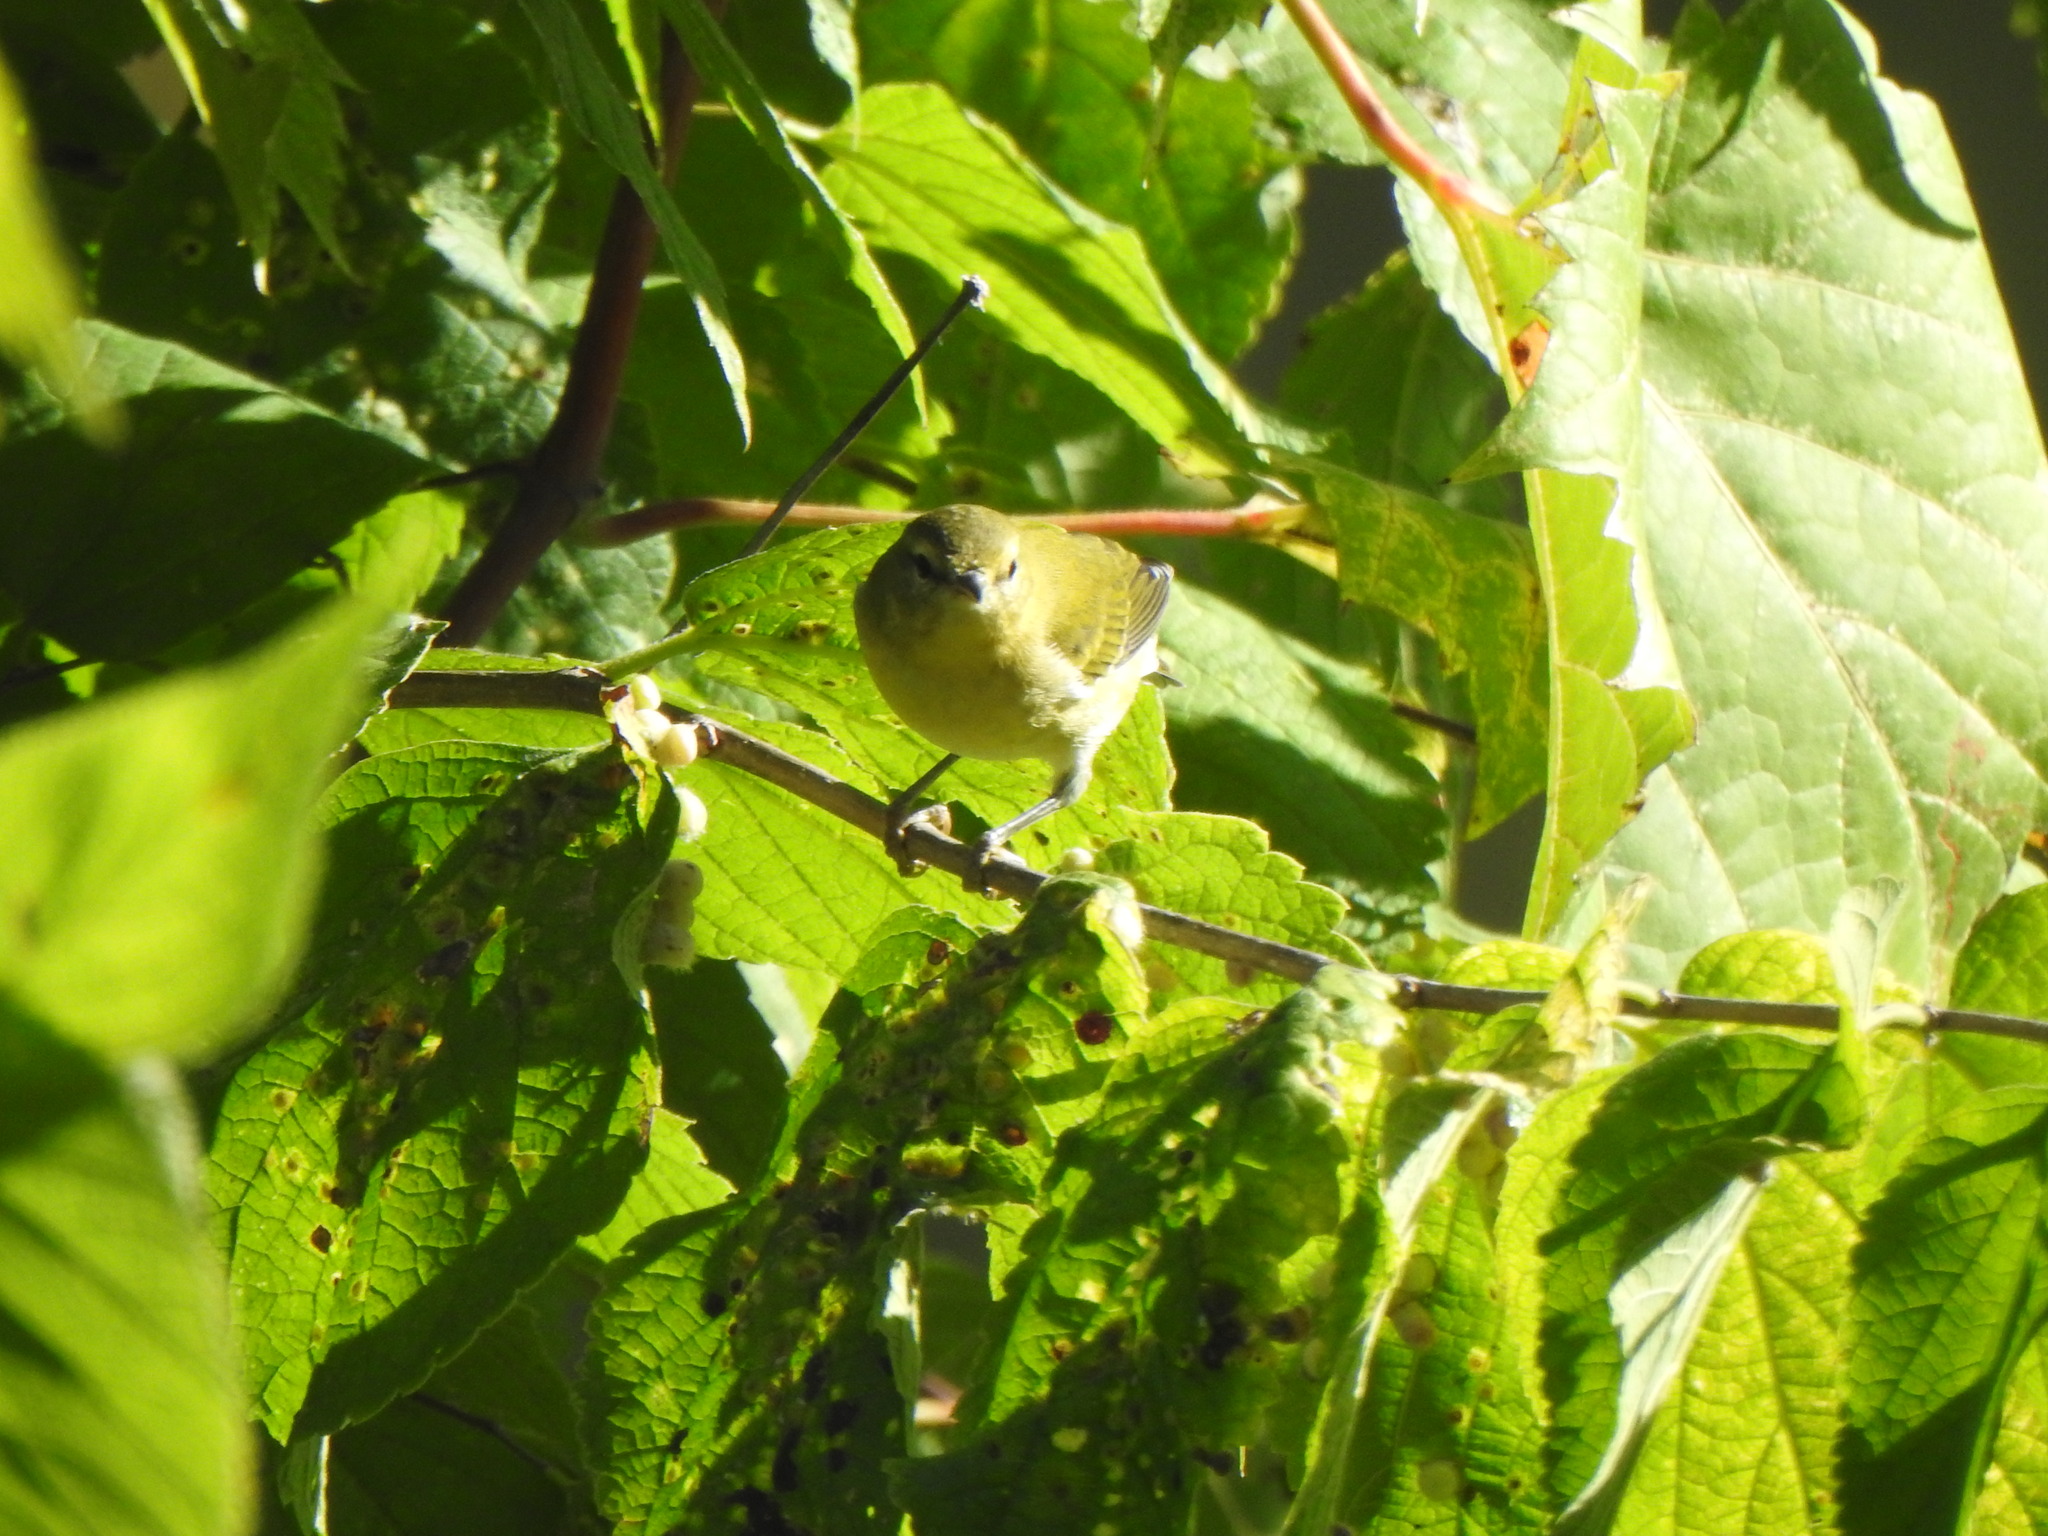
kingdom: Animalia
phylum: Chordata
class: Aves
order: Passeriformes
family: Parulidae
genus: Leiothlypis
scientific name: Leiothlypis peregrina
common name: Tennessee warbler
